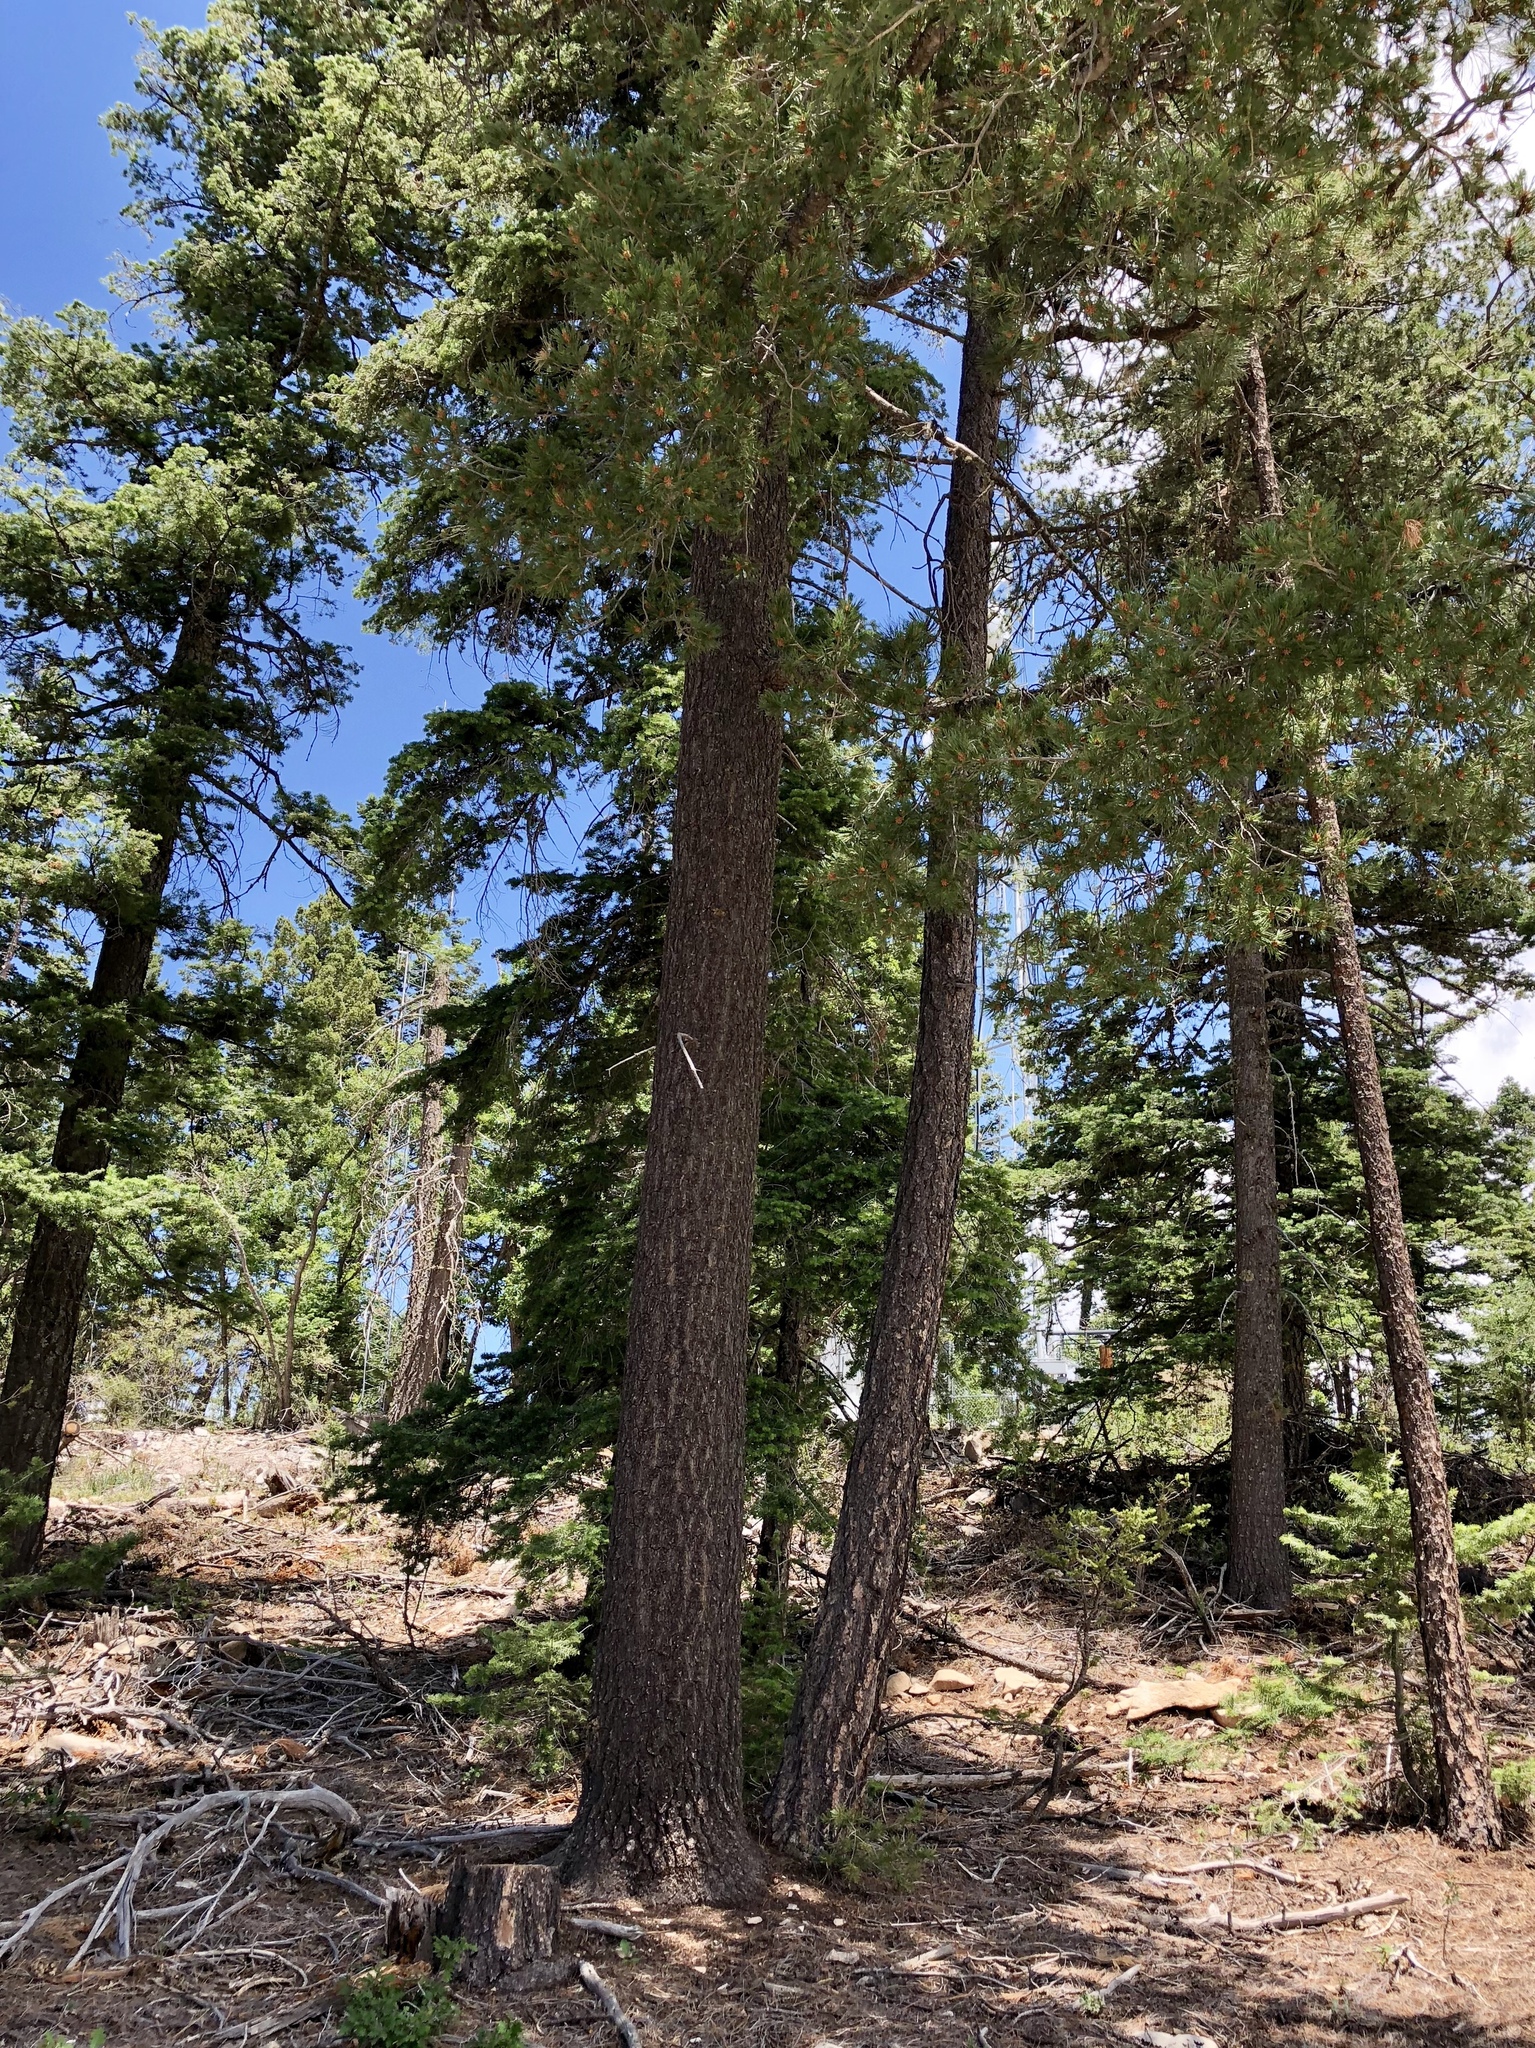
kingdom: Plantae
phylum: Tracheophyta
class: Pinopsida
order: Pinales
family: Pinaceae
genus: Pinus
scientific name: Pinus strobiformis
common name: Southwestern white pine
